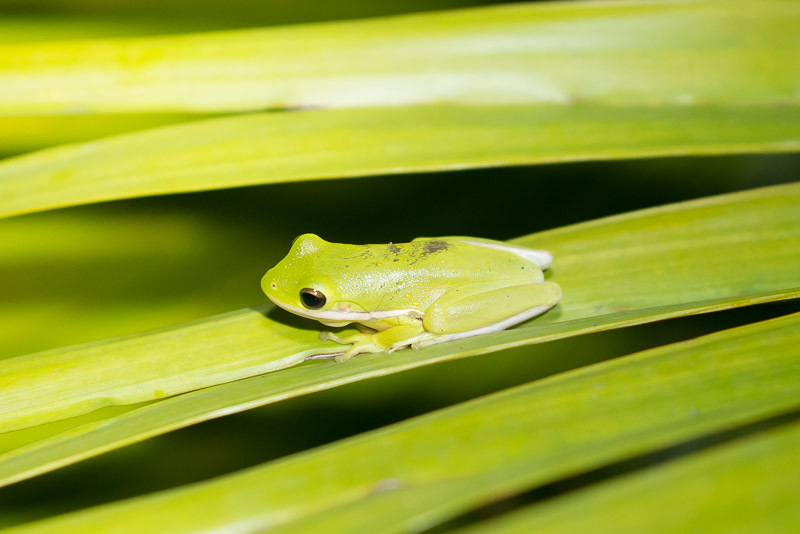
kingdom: Animalia
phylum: Chordata
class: Amphibia
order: Anura
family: Hylidae
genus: Dryophytes
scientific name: Dryophytes cinereus
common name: Green treefrog
